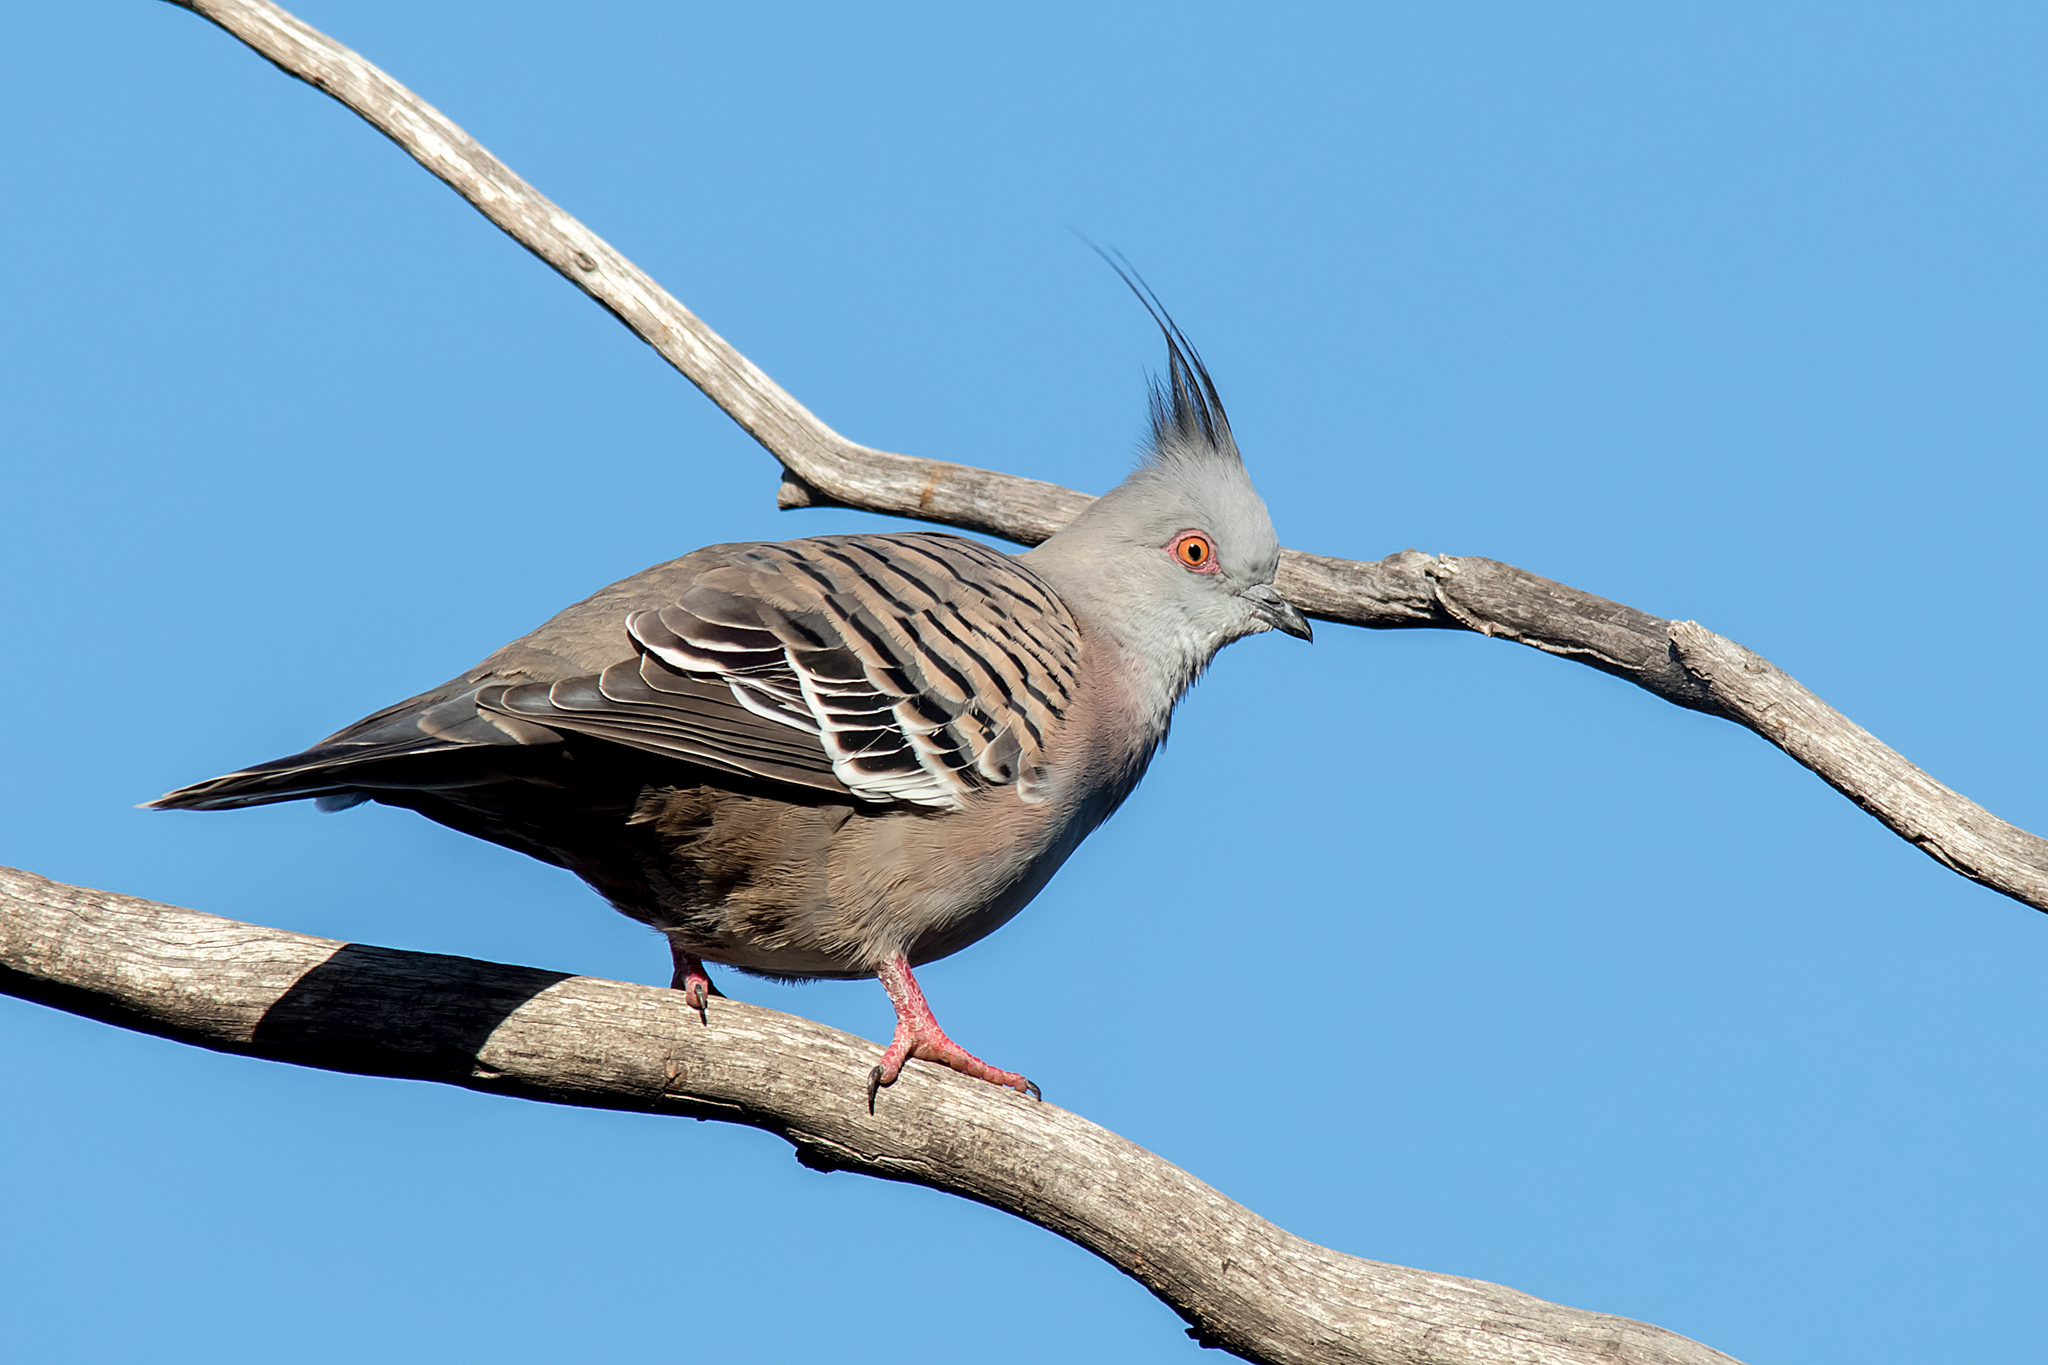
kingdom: Animalia
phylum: Chordata
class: Aves
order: Columbiformes
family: Columbidae
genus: Ocyphaps
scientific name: Ocyphaps lophotes
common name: Crested pigeon
